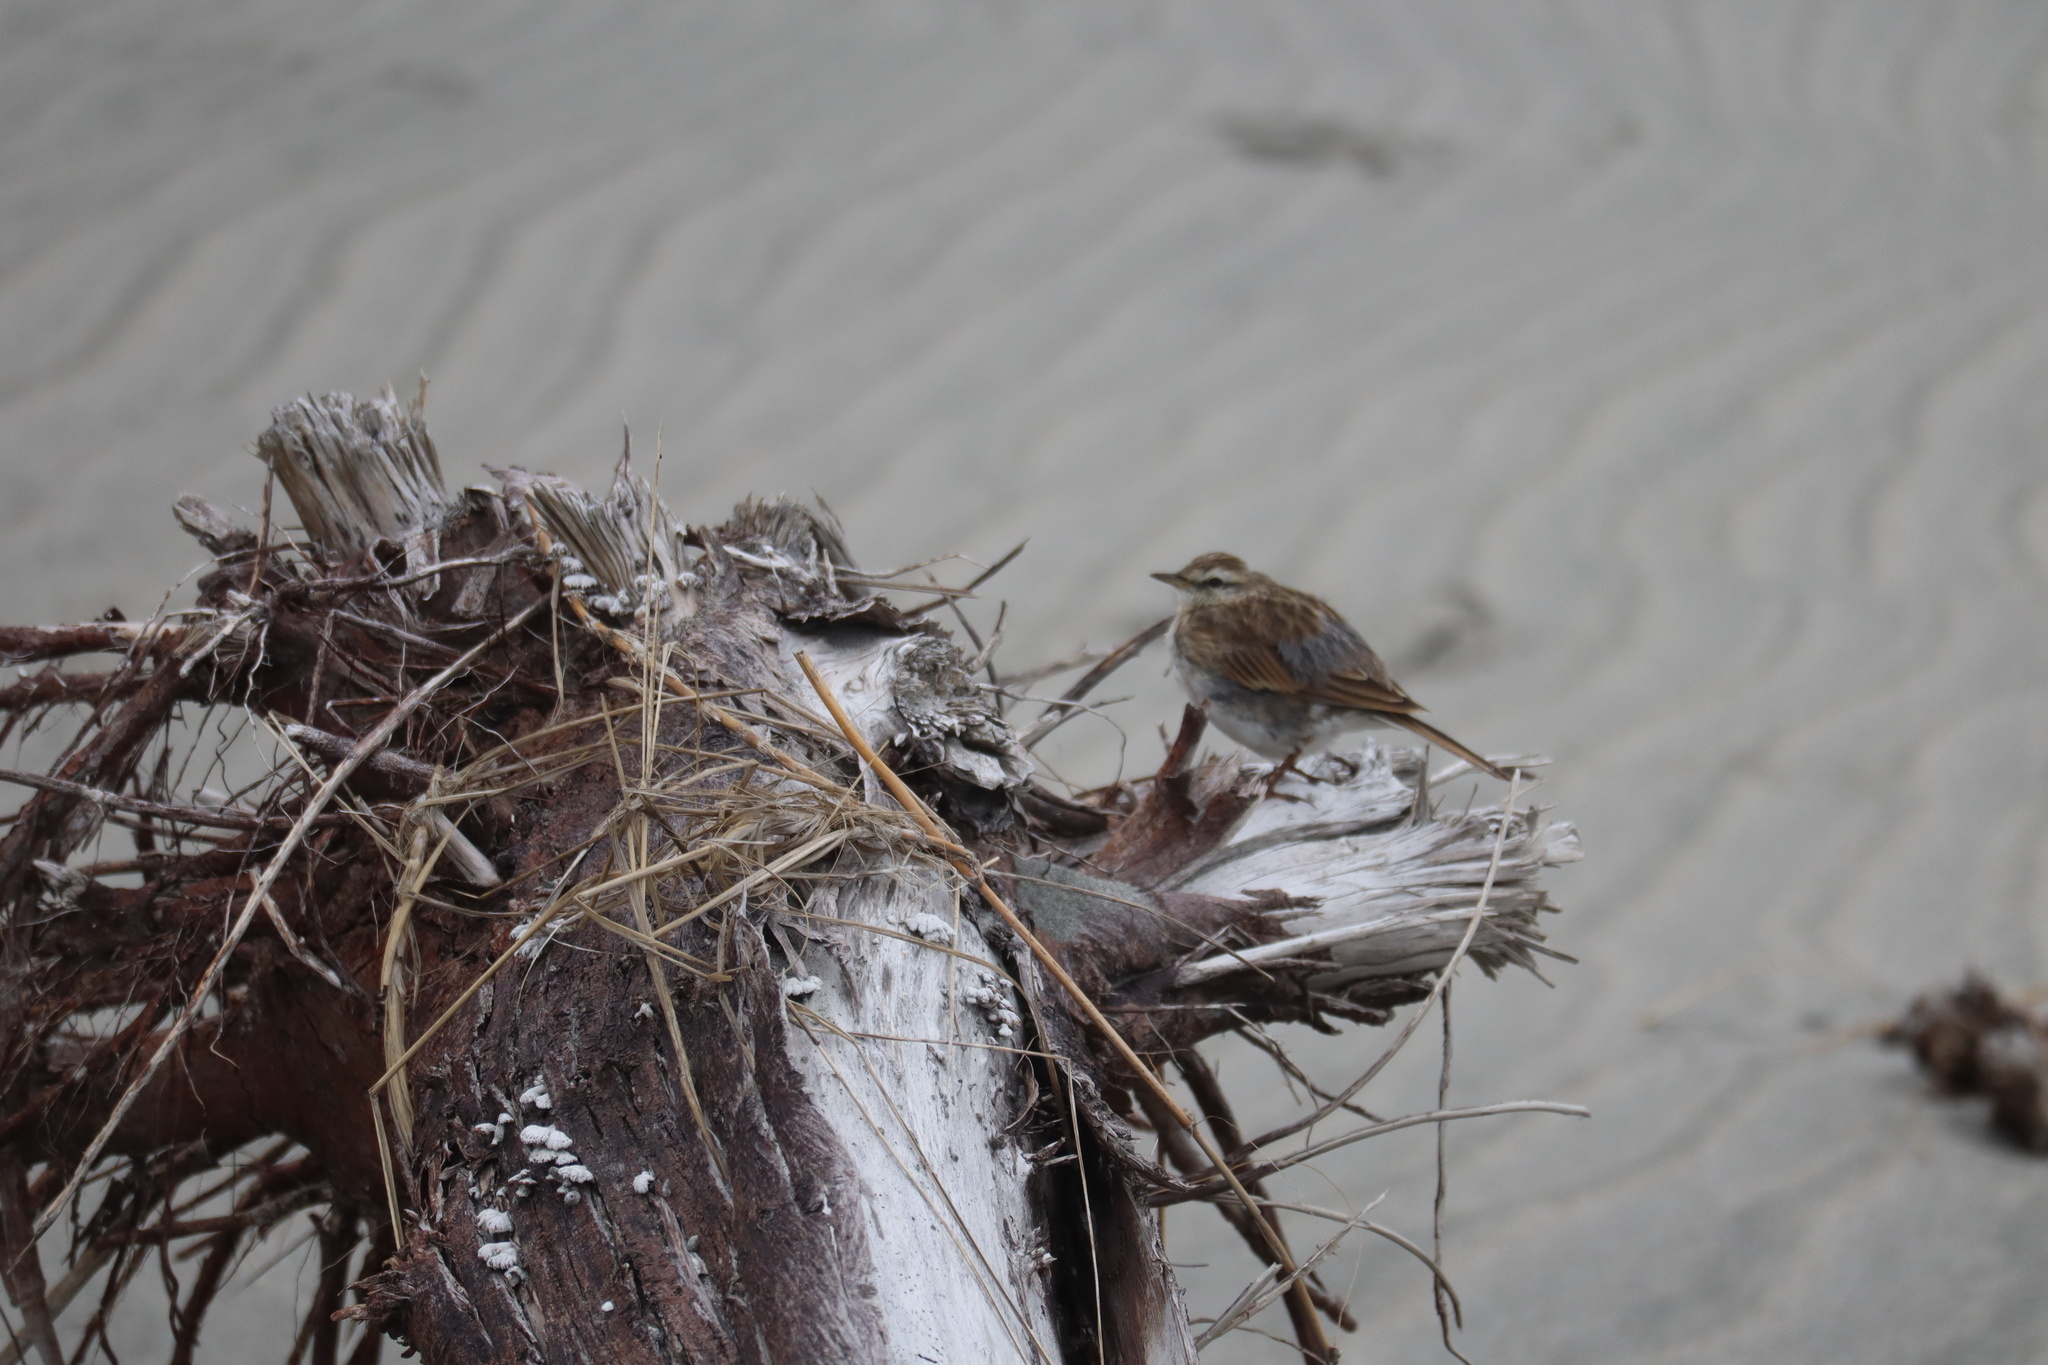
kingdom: Animalia
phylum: Chordata
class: Aves
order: Passeriformes
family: Motacillidae
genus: Anthus
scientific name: Anthus novaeseelandiae
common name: New zealand pipit
